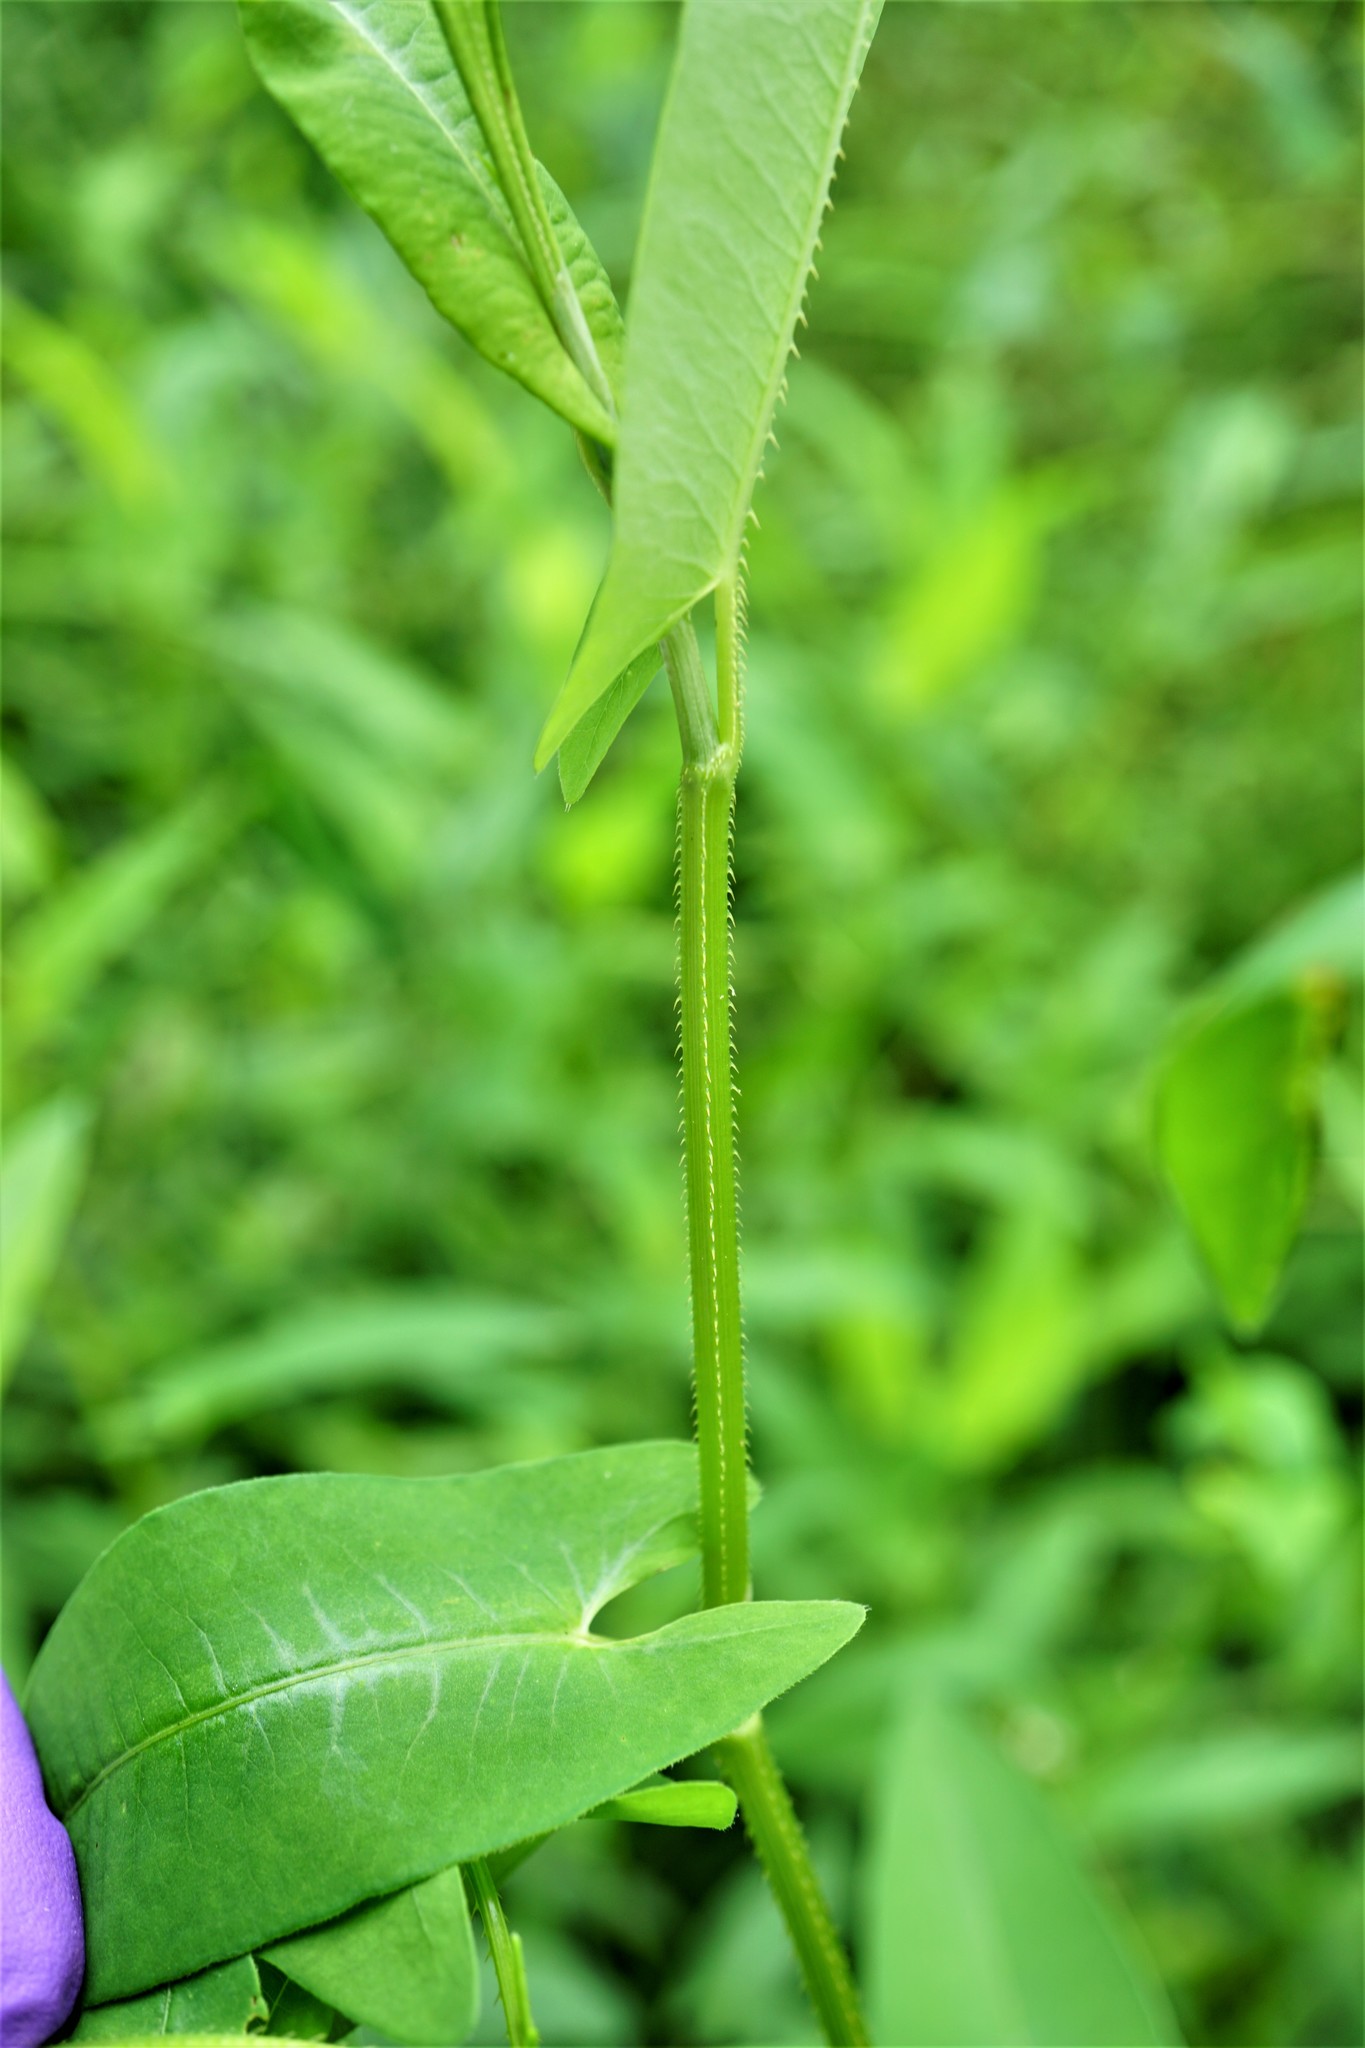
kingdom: Plantae
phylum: Tracheophyta
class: Magnoliopsida
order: Caryophyllales
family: Polygonaceae
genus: Persicaria
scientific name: Persicaria sagittata
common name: American tearthumb
